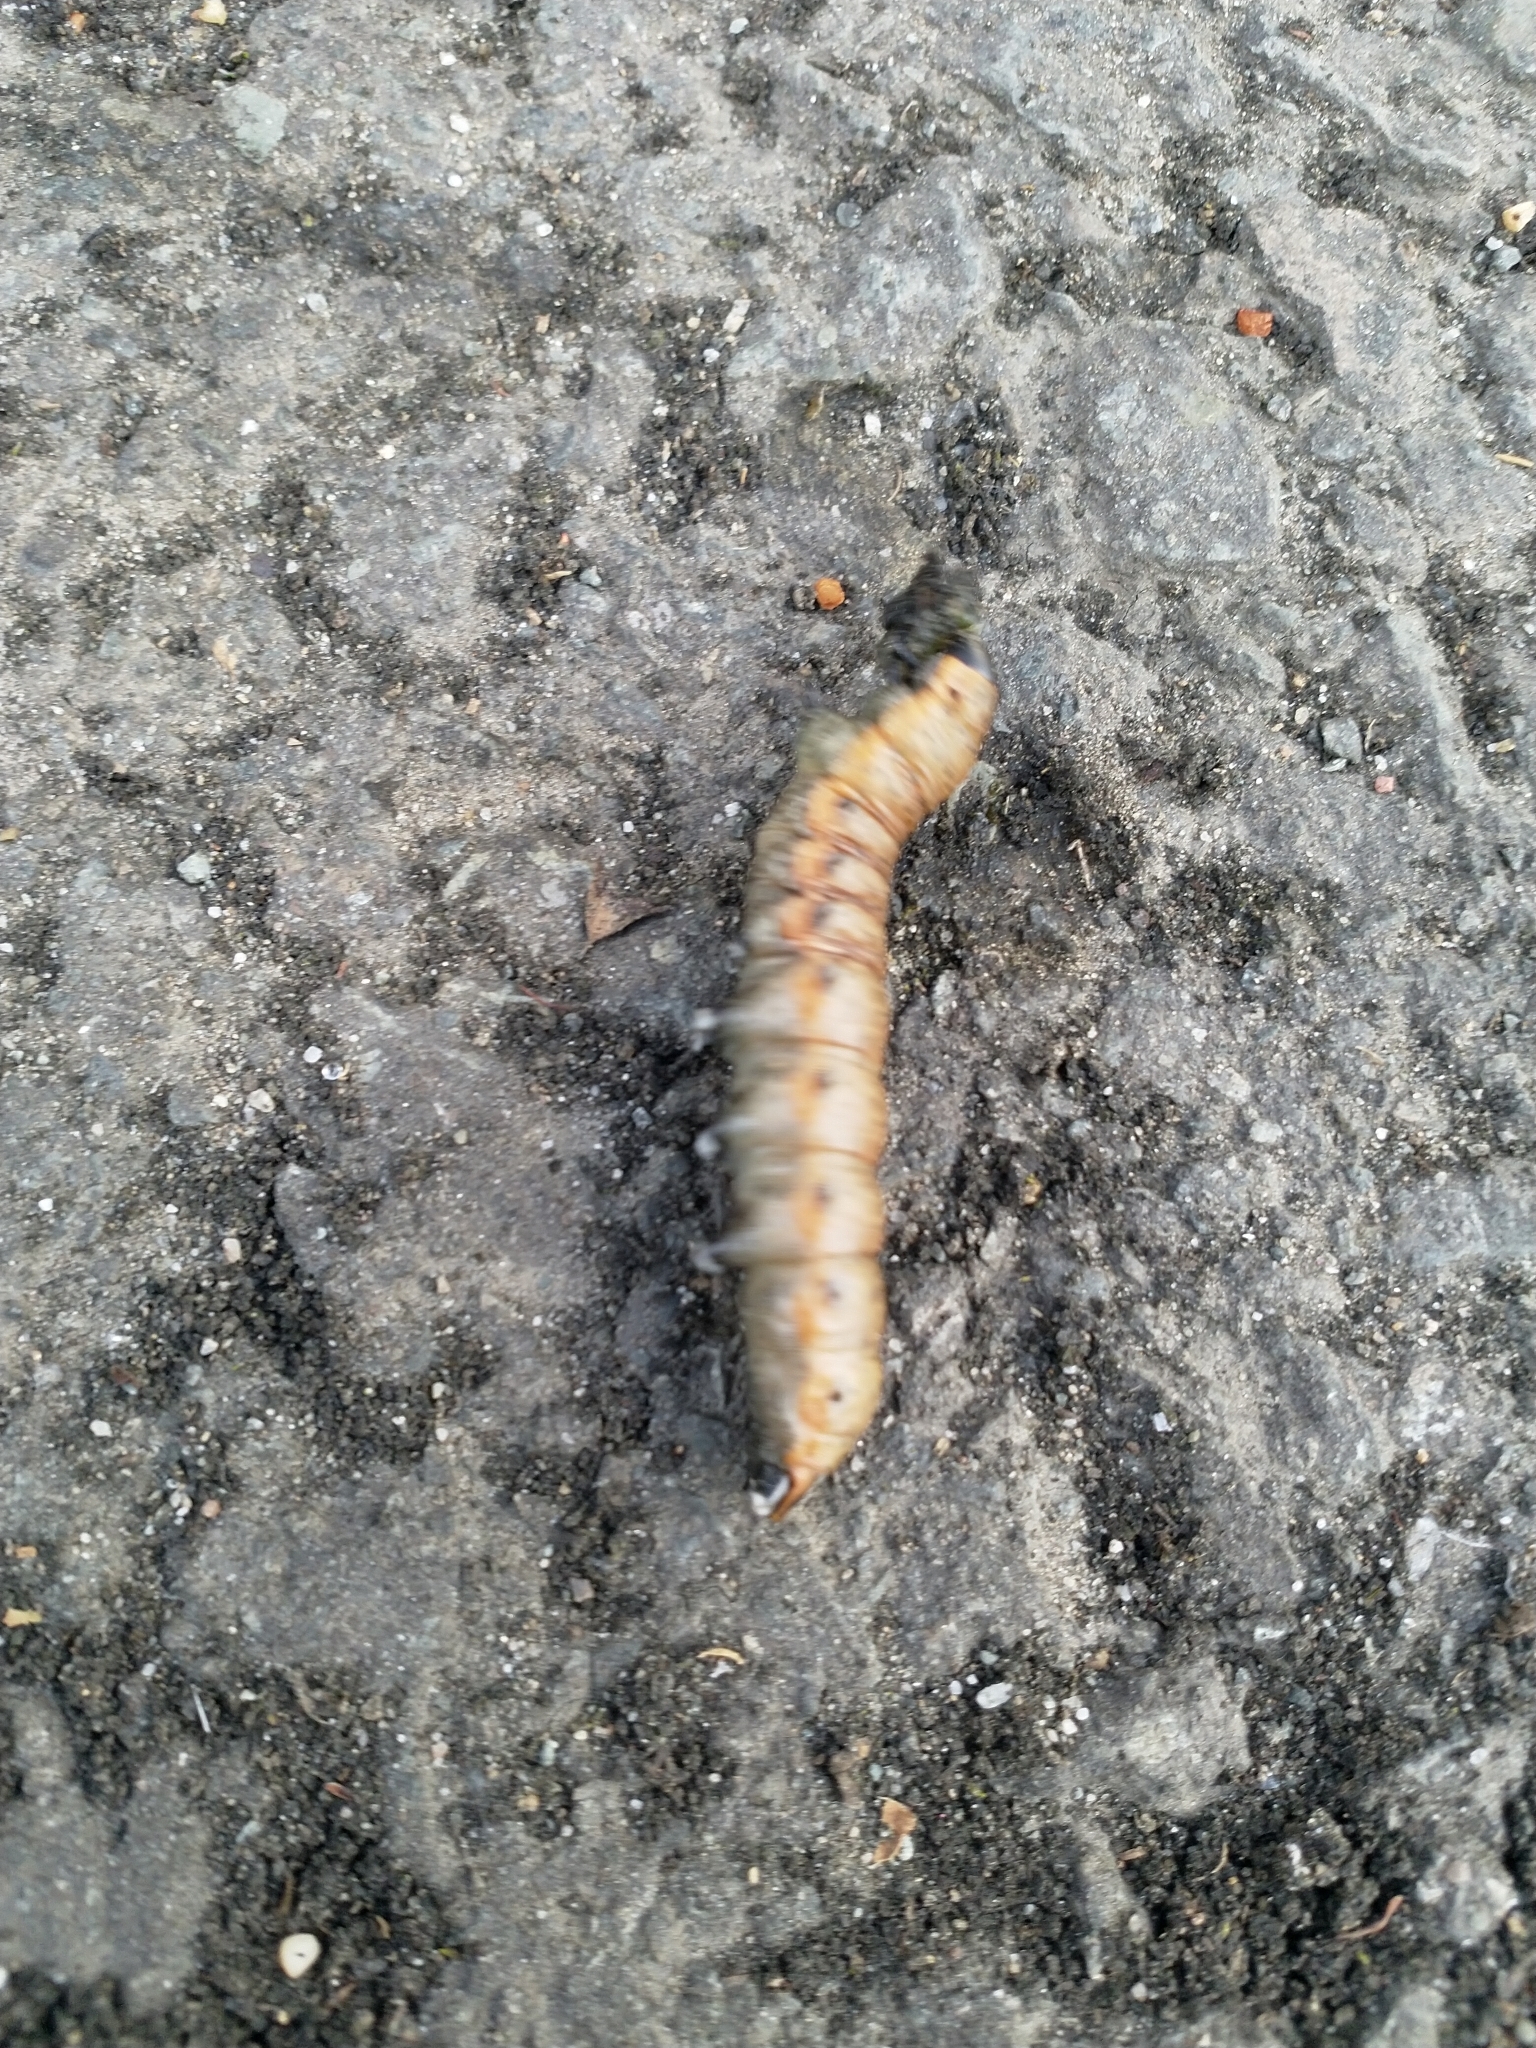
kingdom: Animalia
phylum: Arthropoda
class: Insecta
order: Lepidoptera
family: Noctuidae
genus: Cucullia
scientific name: Cucullia umbratica
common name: Shark
